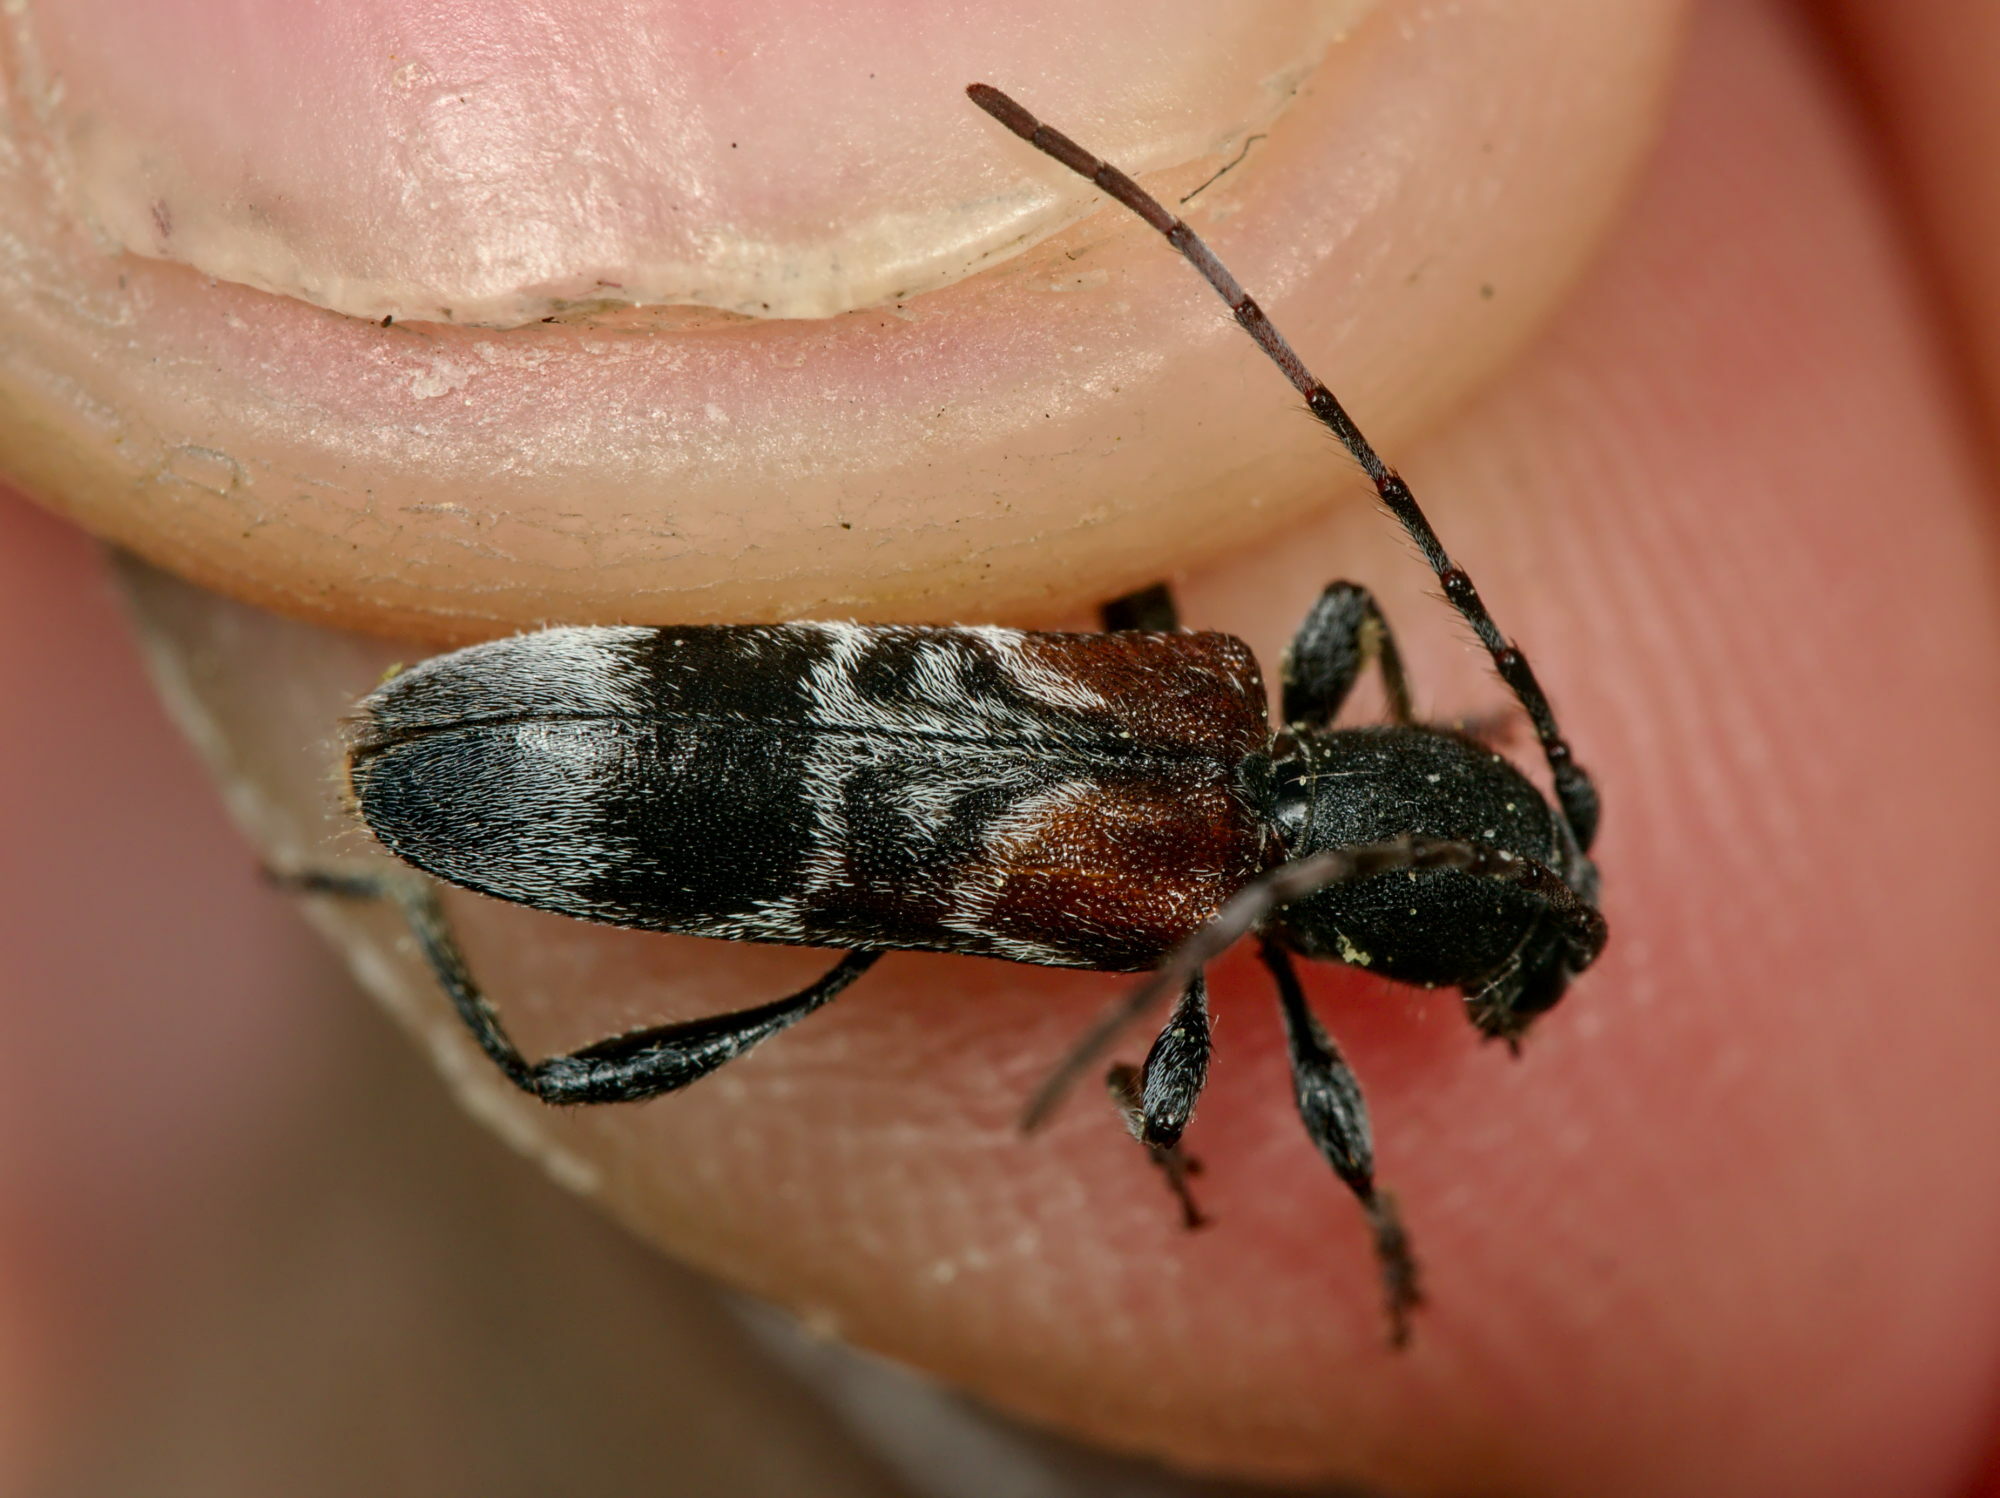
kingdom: Animalia
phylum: Arthropoda
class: Insecta
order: Coleoptera
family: Cerambycidae
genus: Anaglyptus
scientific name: Anaglyptus mysticus
